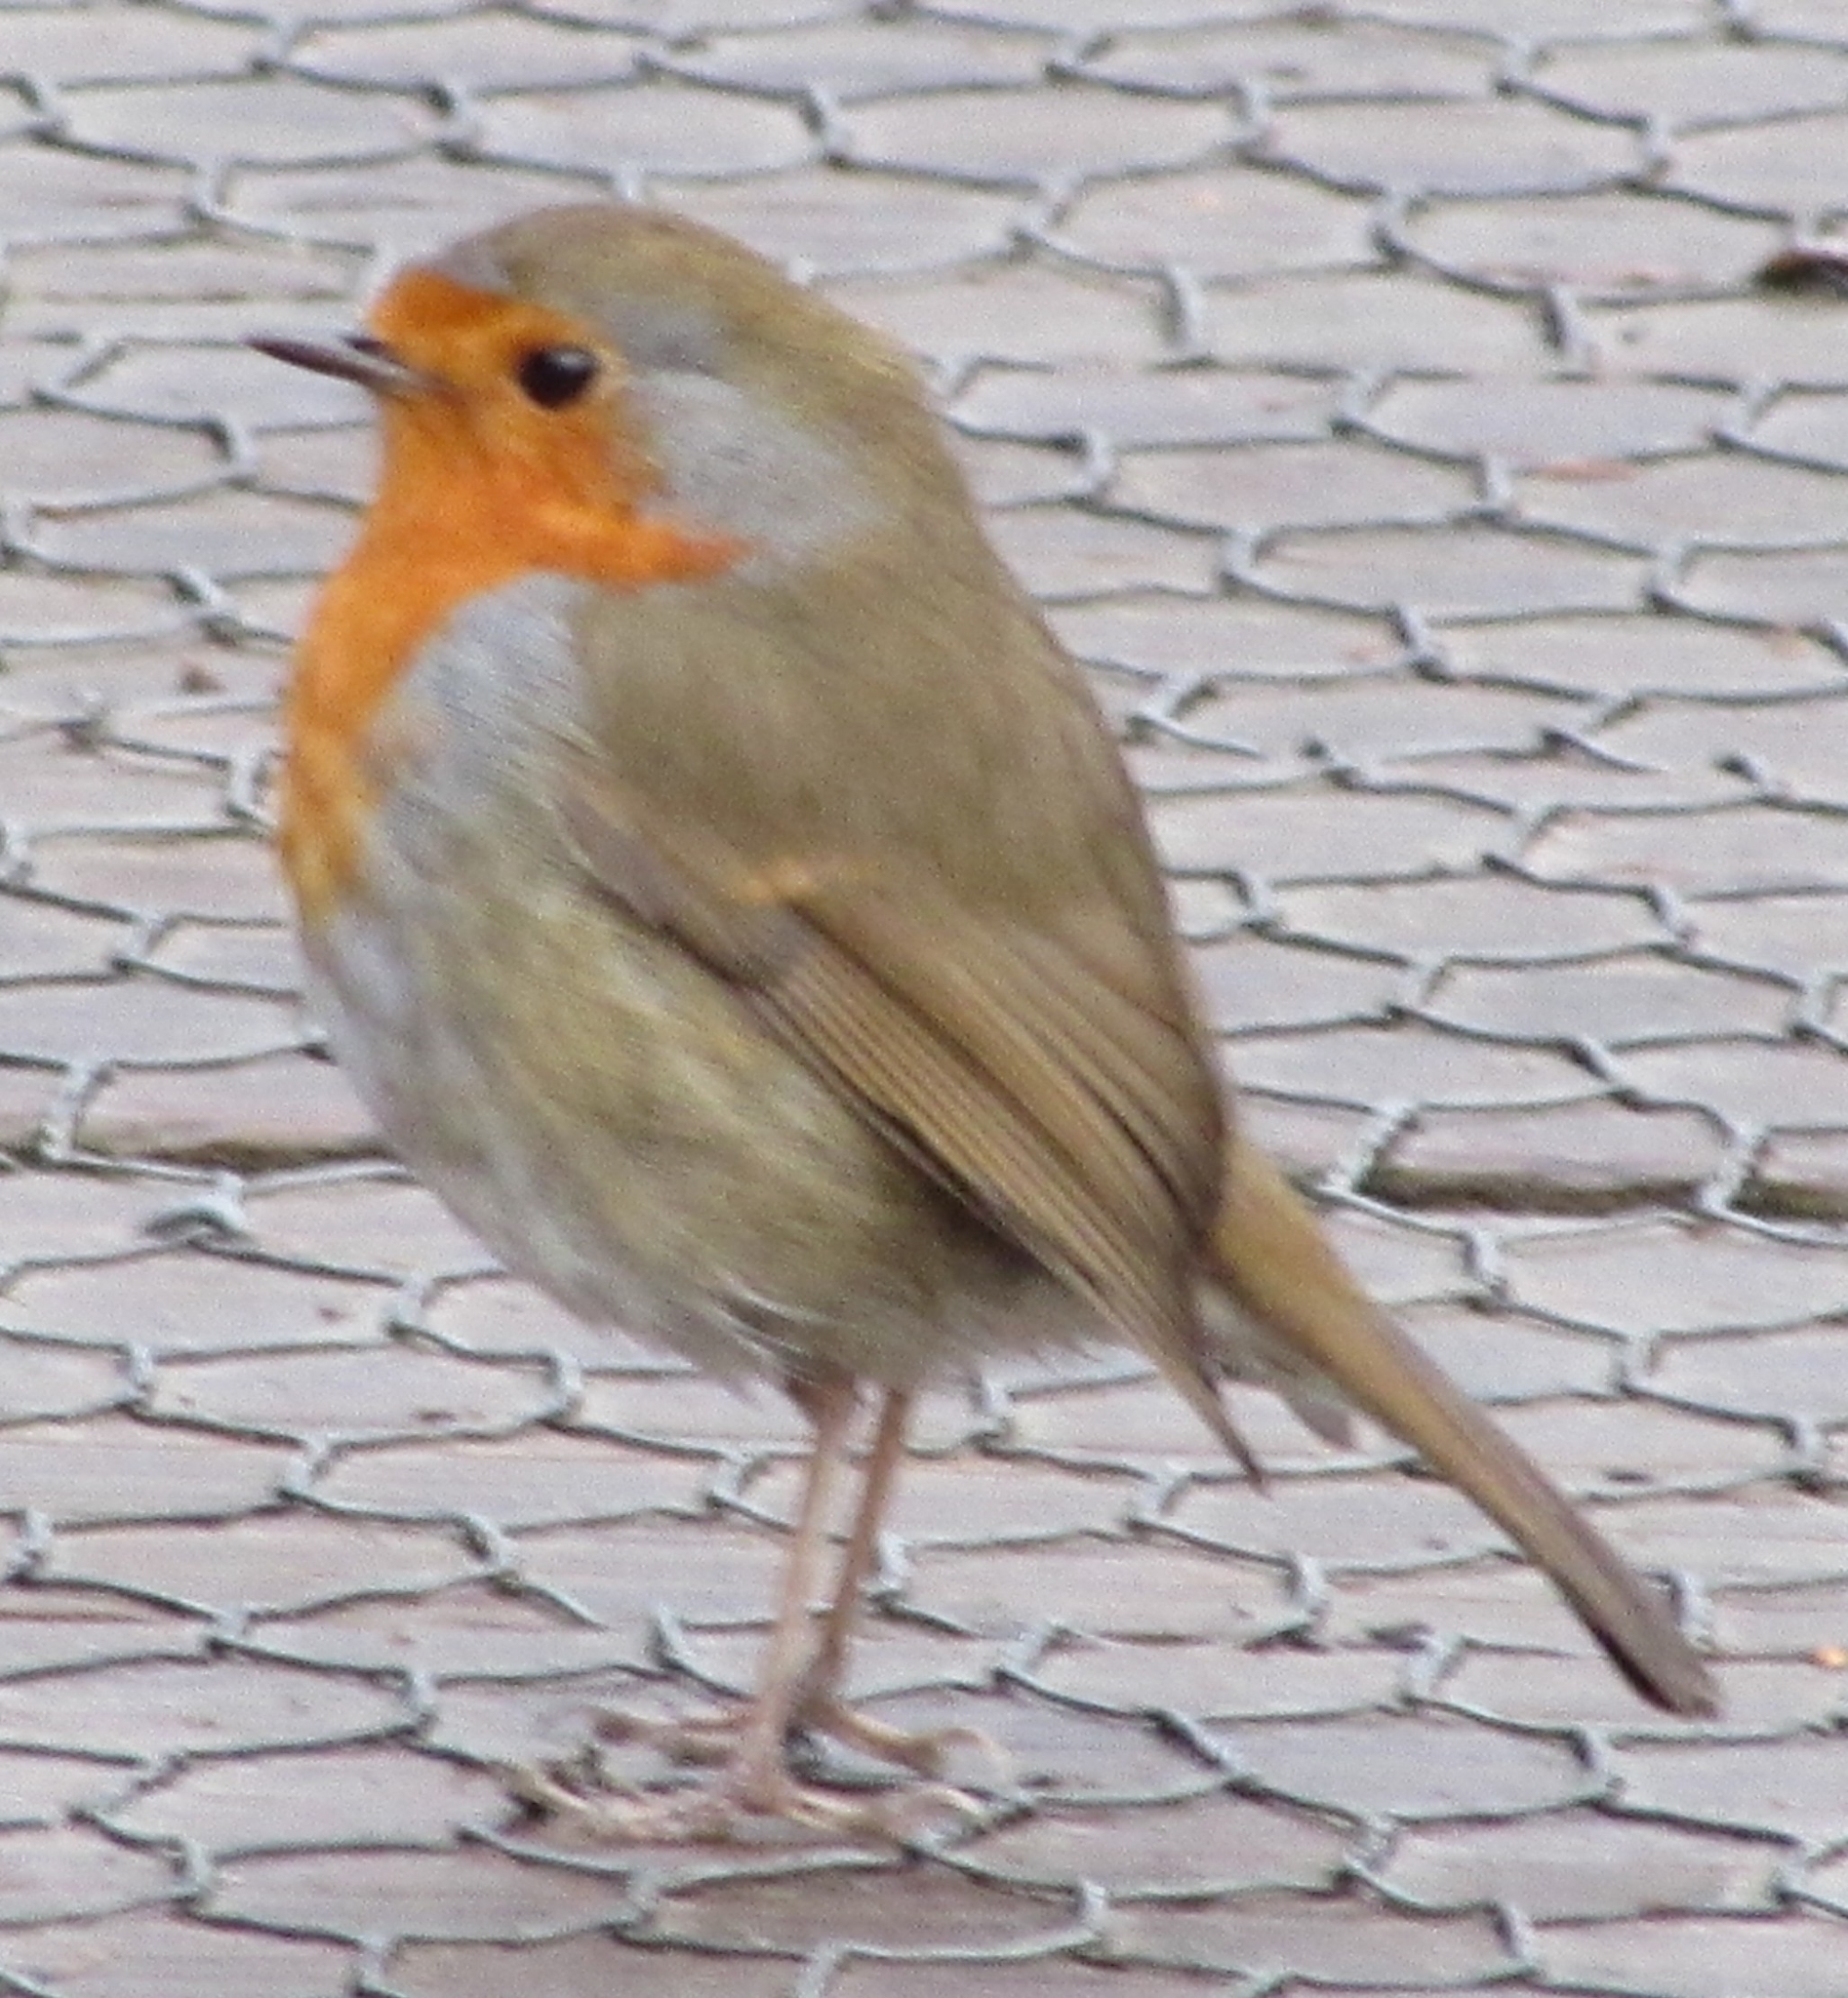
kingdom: Animalia
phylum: Chordata
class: Aves
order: Passeriformes
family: Muscicapidae
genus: Erithacus
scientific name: Erithacus rubecula
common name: European robin
